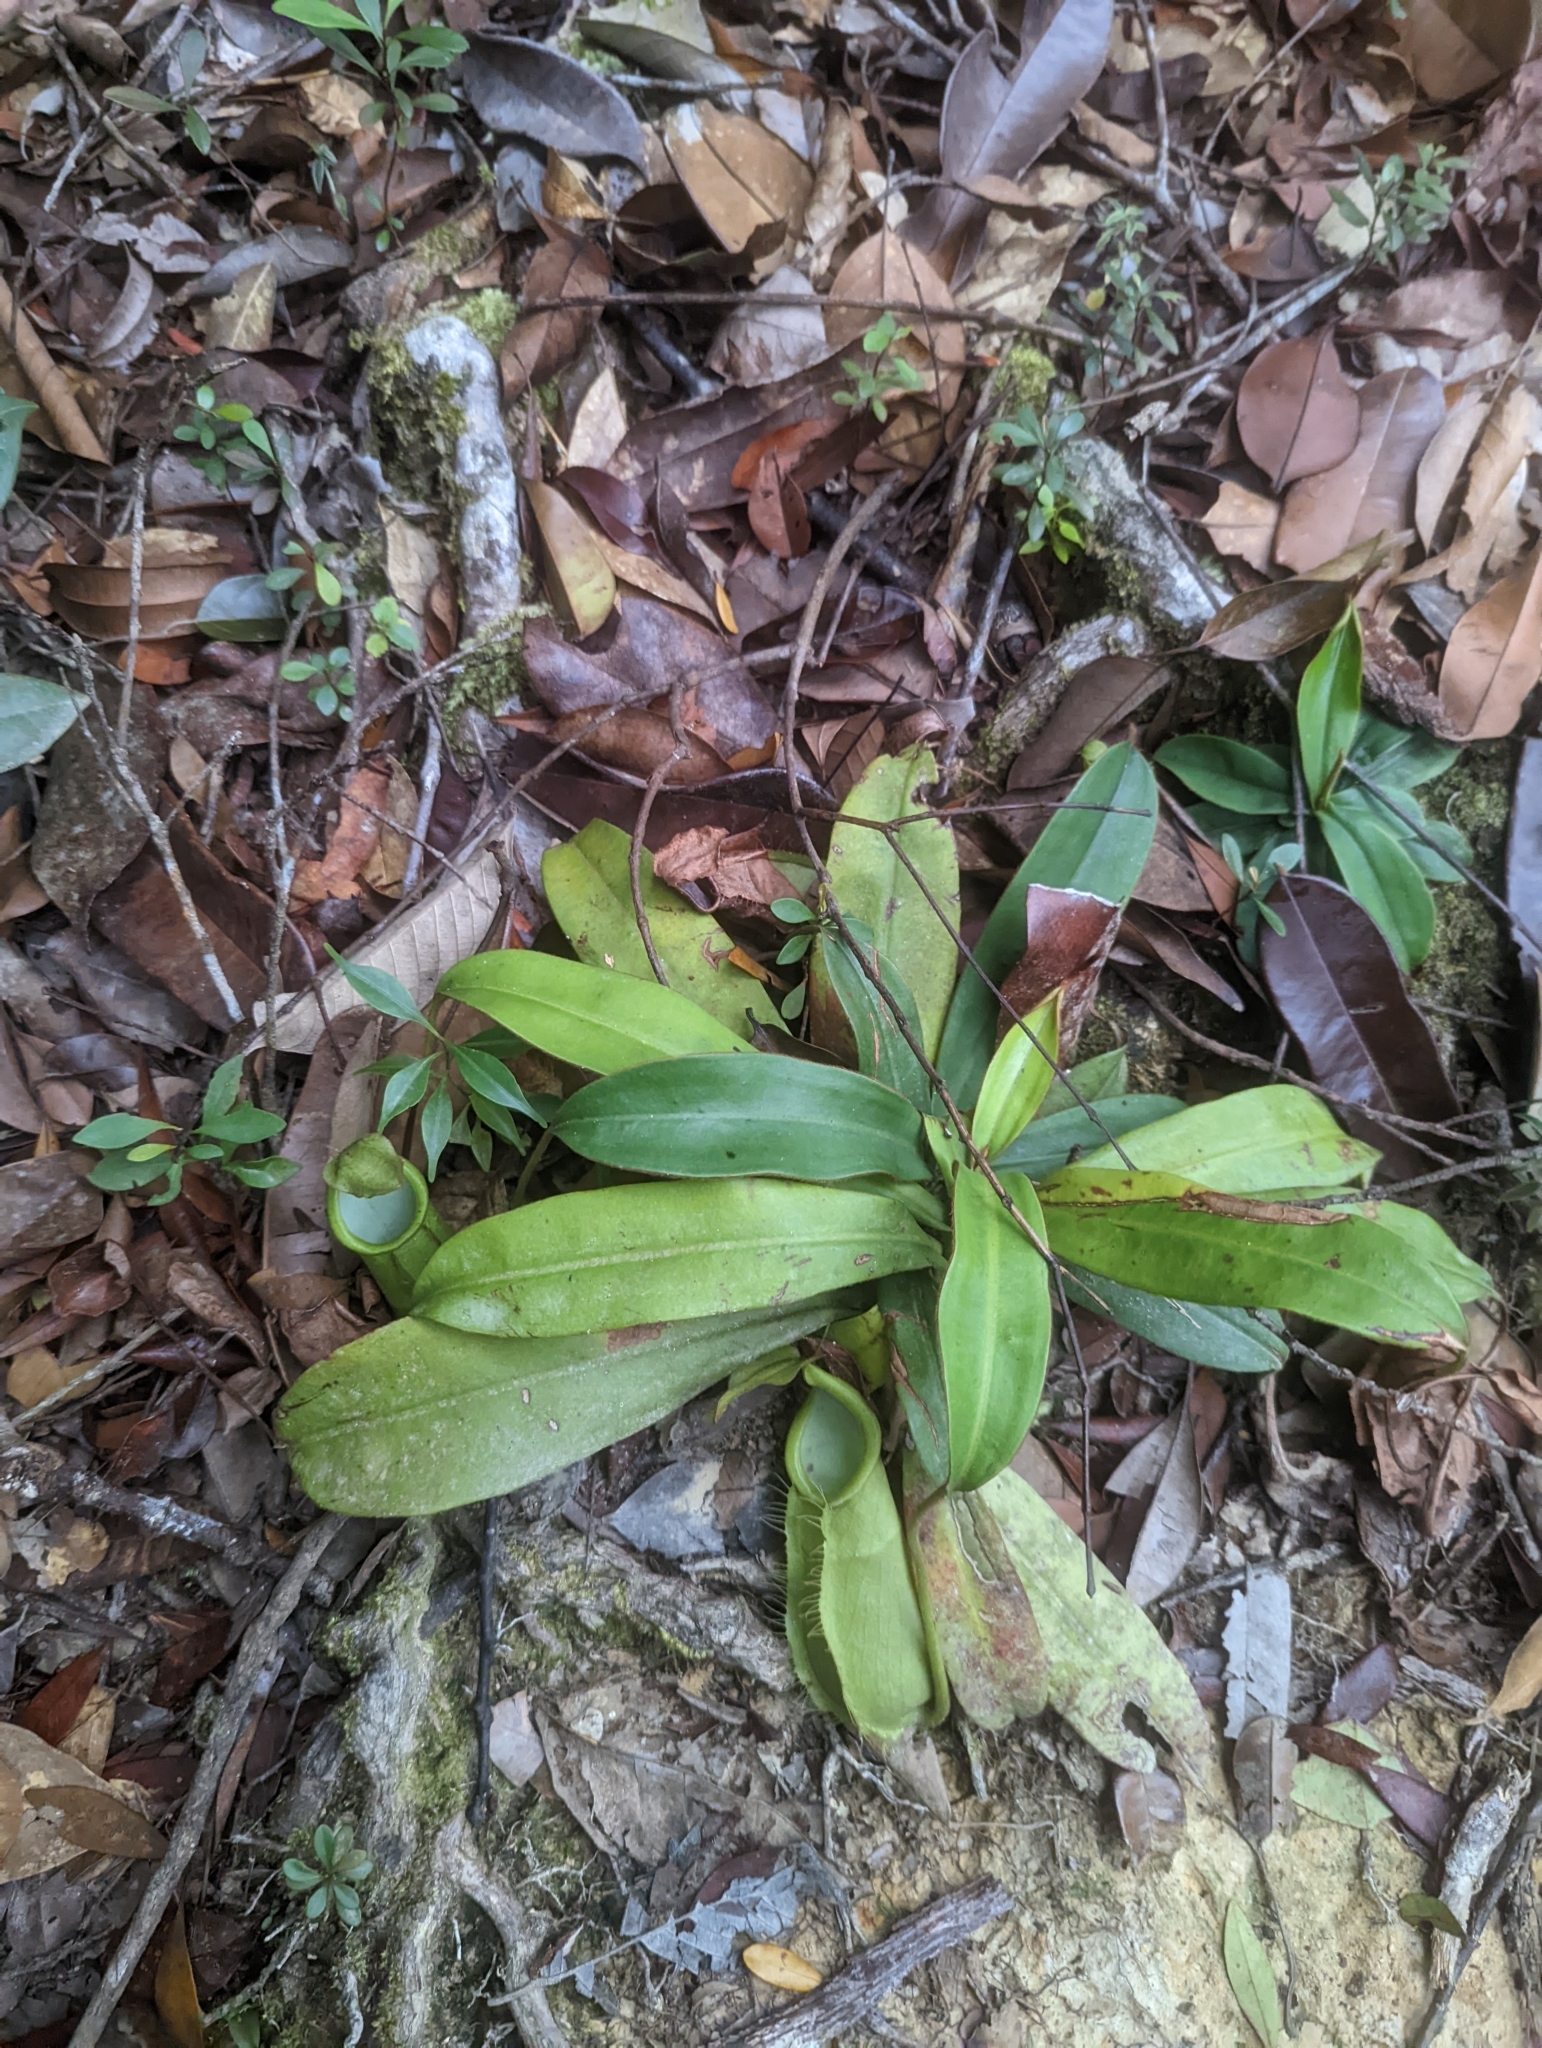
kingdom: Plantae
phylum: Tracheophyta
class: Magnoliopsida
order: Caryophyllales
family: Nepenthaceae
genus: Nepenthes
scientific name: Nepenthes hirsuta
